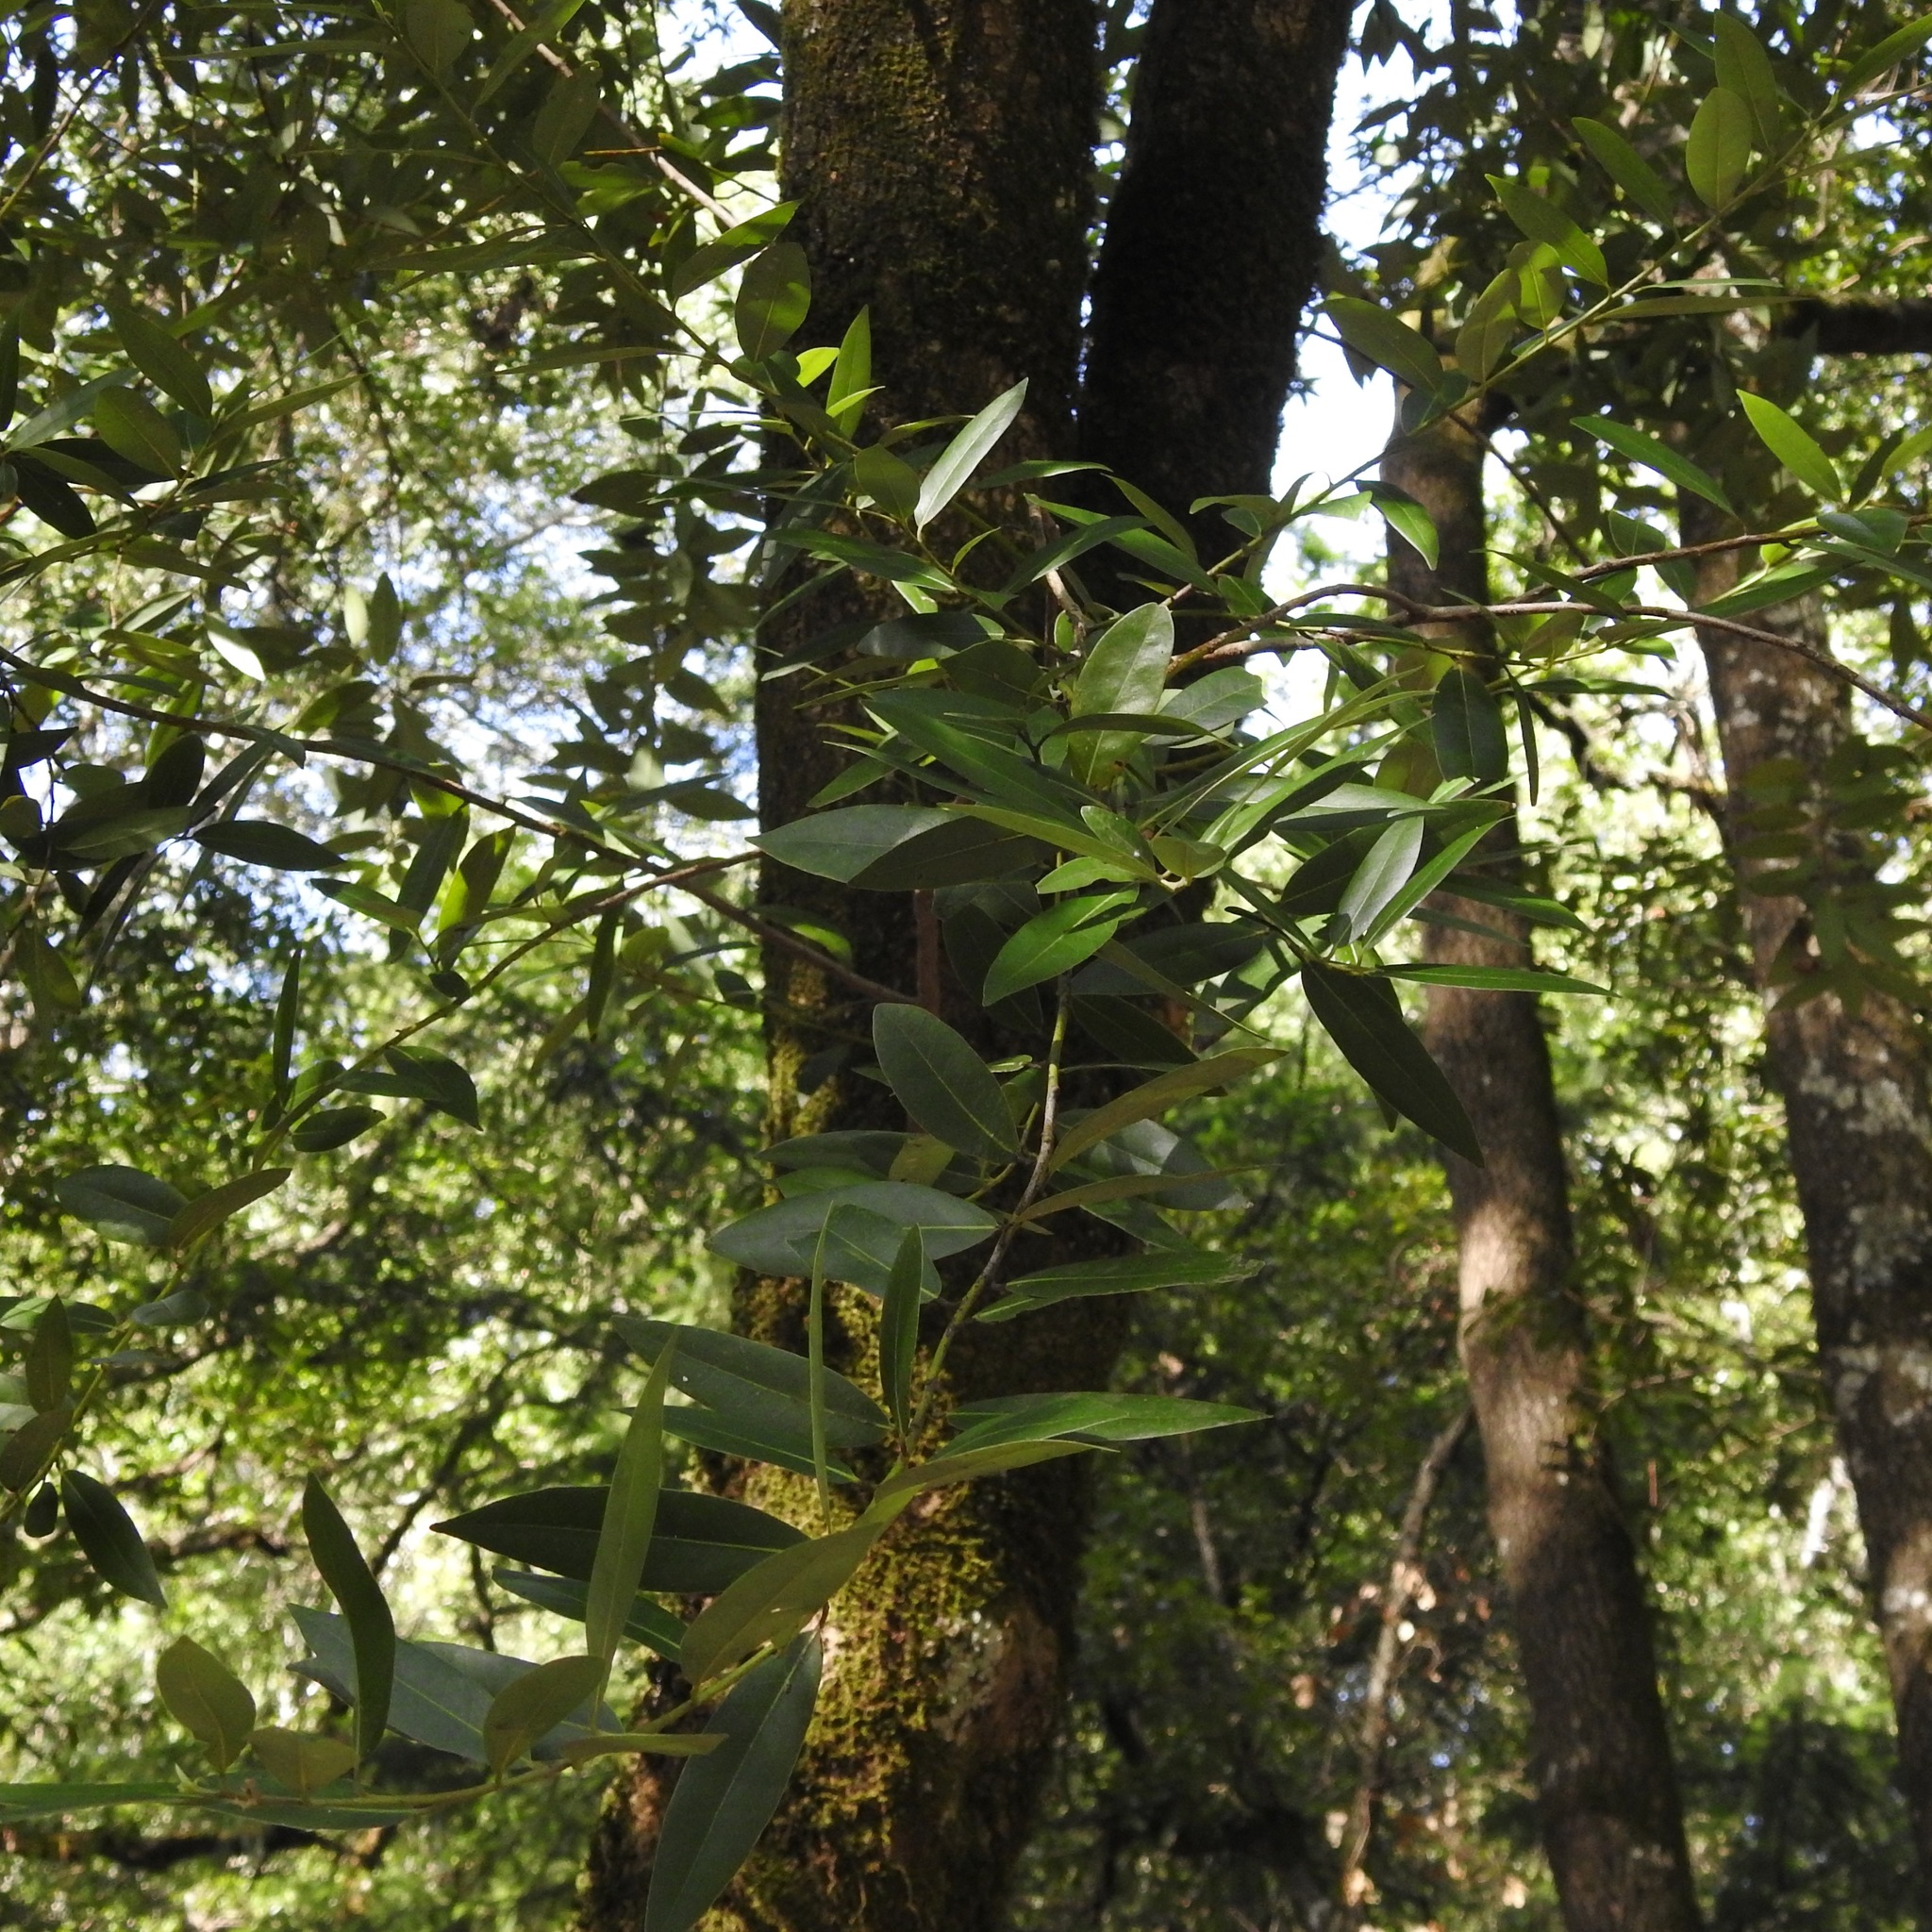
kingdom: Plantae
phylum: Tracheophyta
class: Magnoliopsida
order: Laurales
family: Lauraceae
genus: Umbellularia
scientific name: Umbellularia californica
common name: California bay
